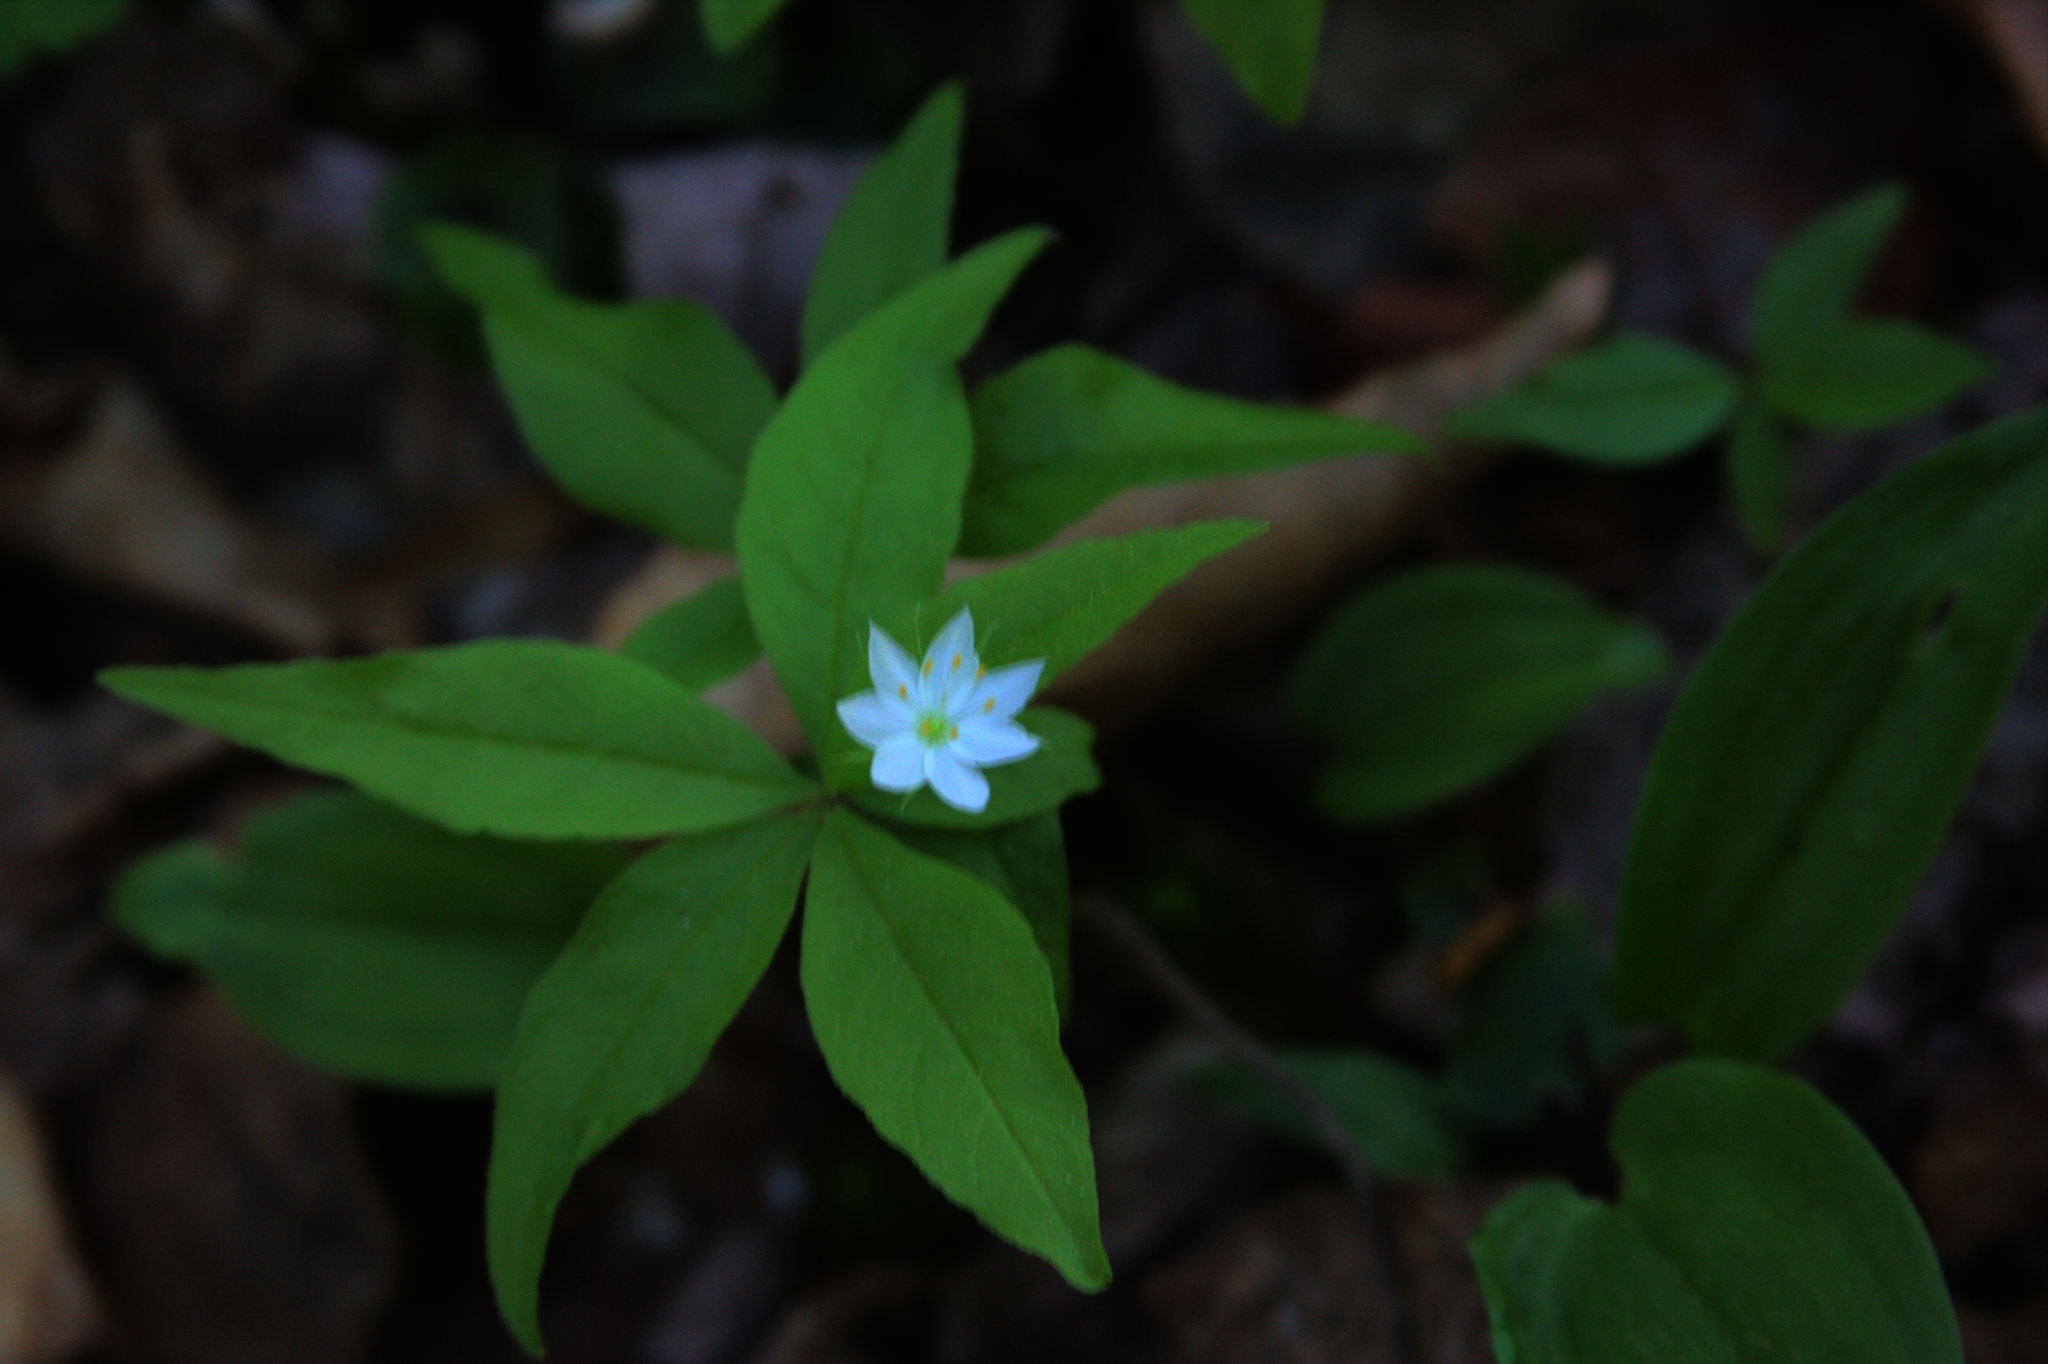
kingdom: Plantae
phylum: Tracheophyta
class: Magnoliopsida
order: Ericales
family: Primulaceae
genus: Lysimachia
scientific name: Lysimachia borealis
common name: American starflower
